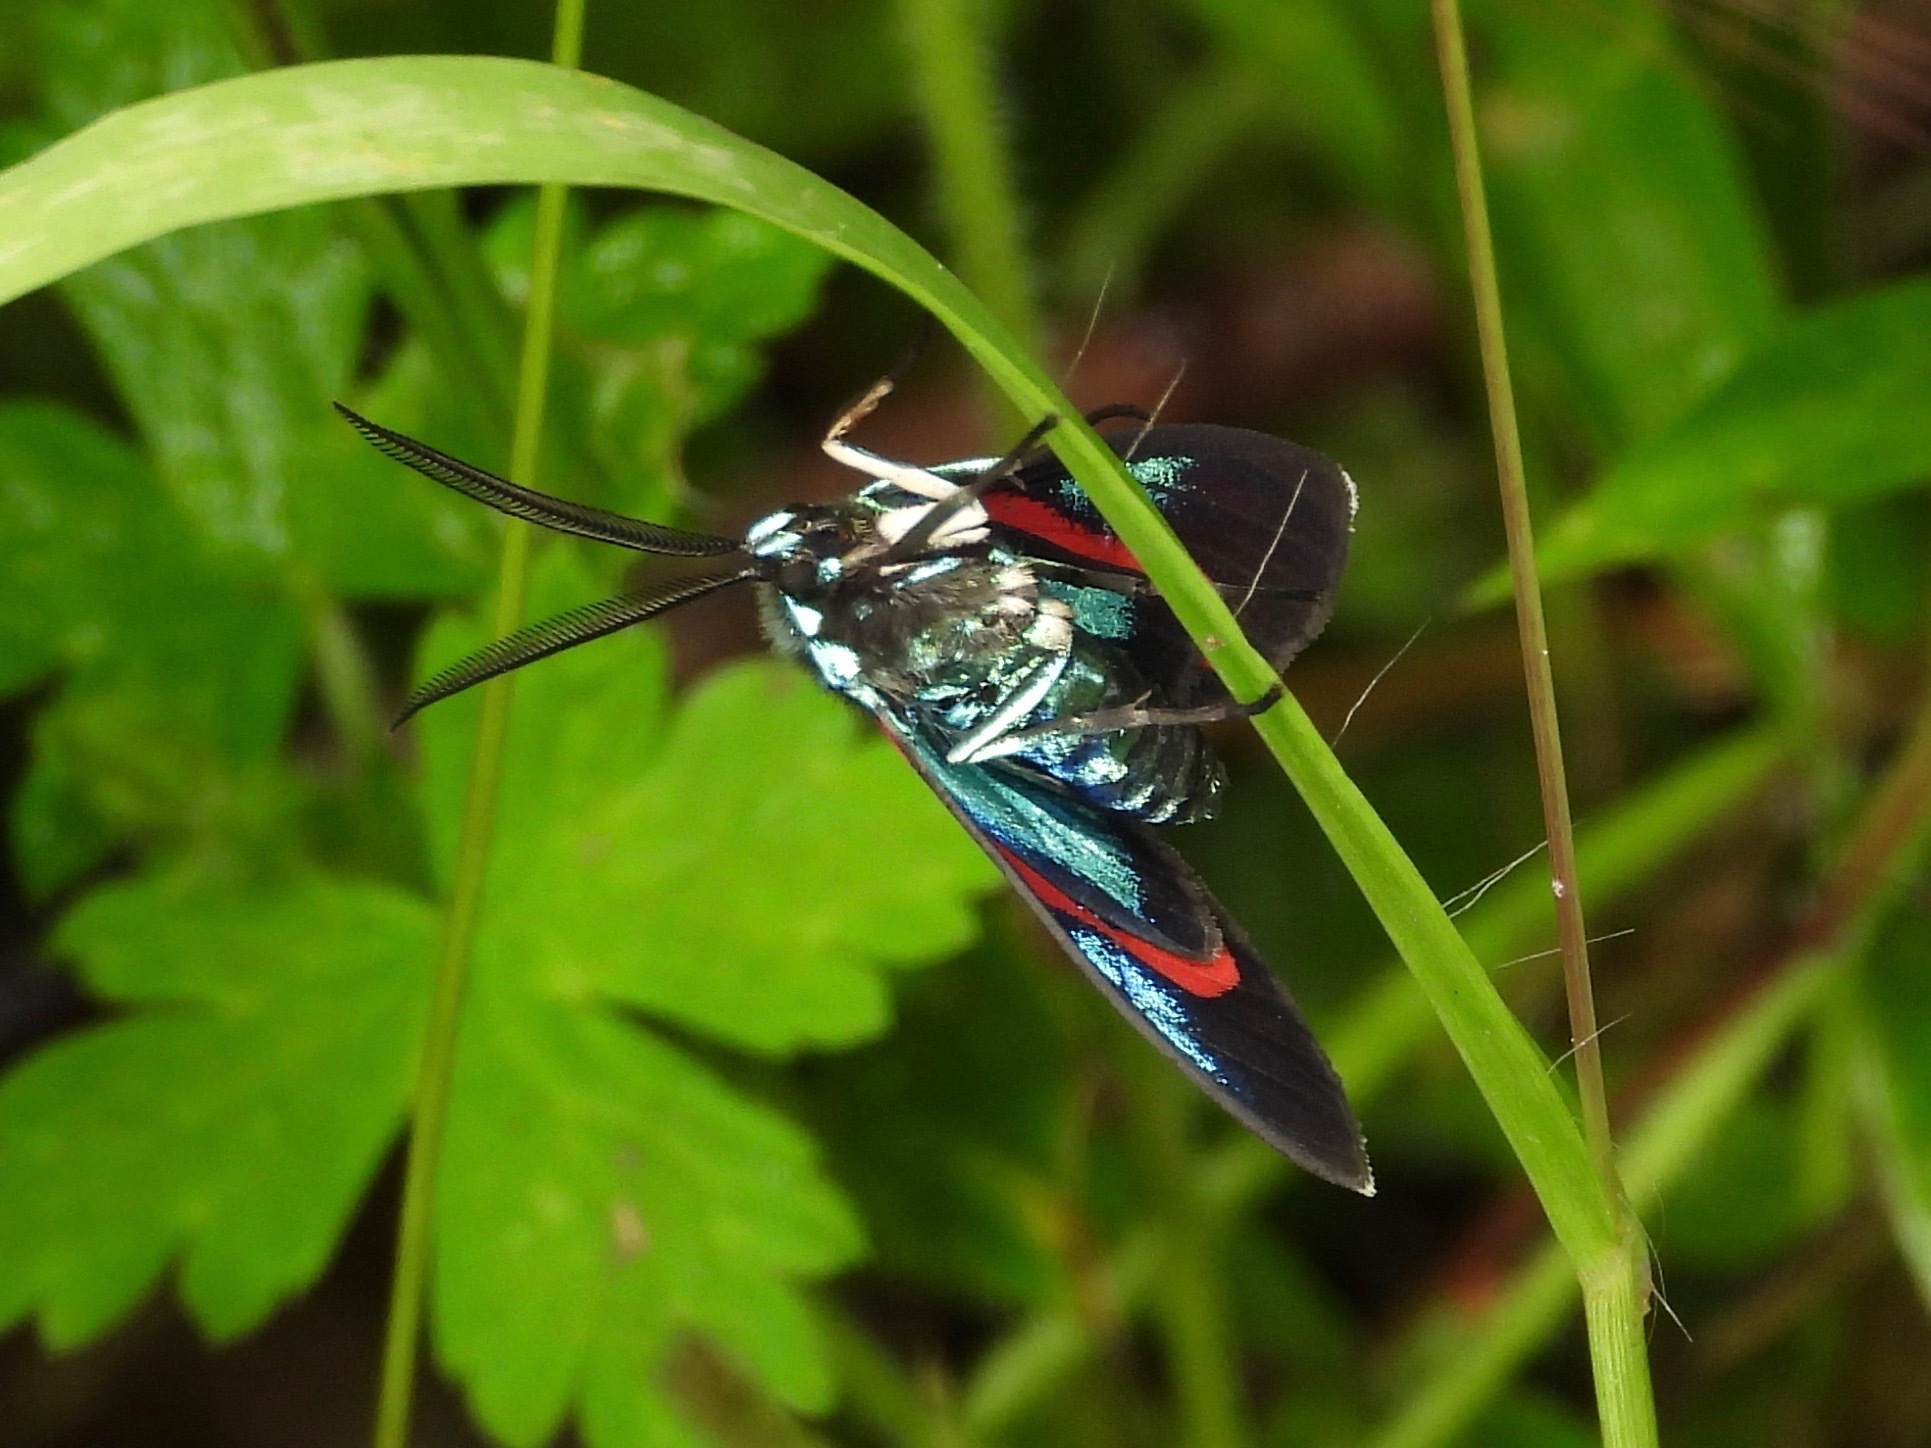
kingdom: Animalia
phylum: Arthropoda
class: Insecta
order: Lepidoptera
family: Erebidae
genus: Cyanopepla
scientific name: Cyanopepla bella
